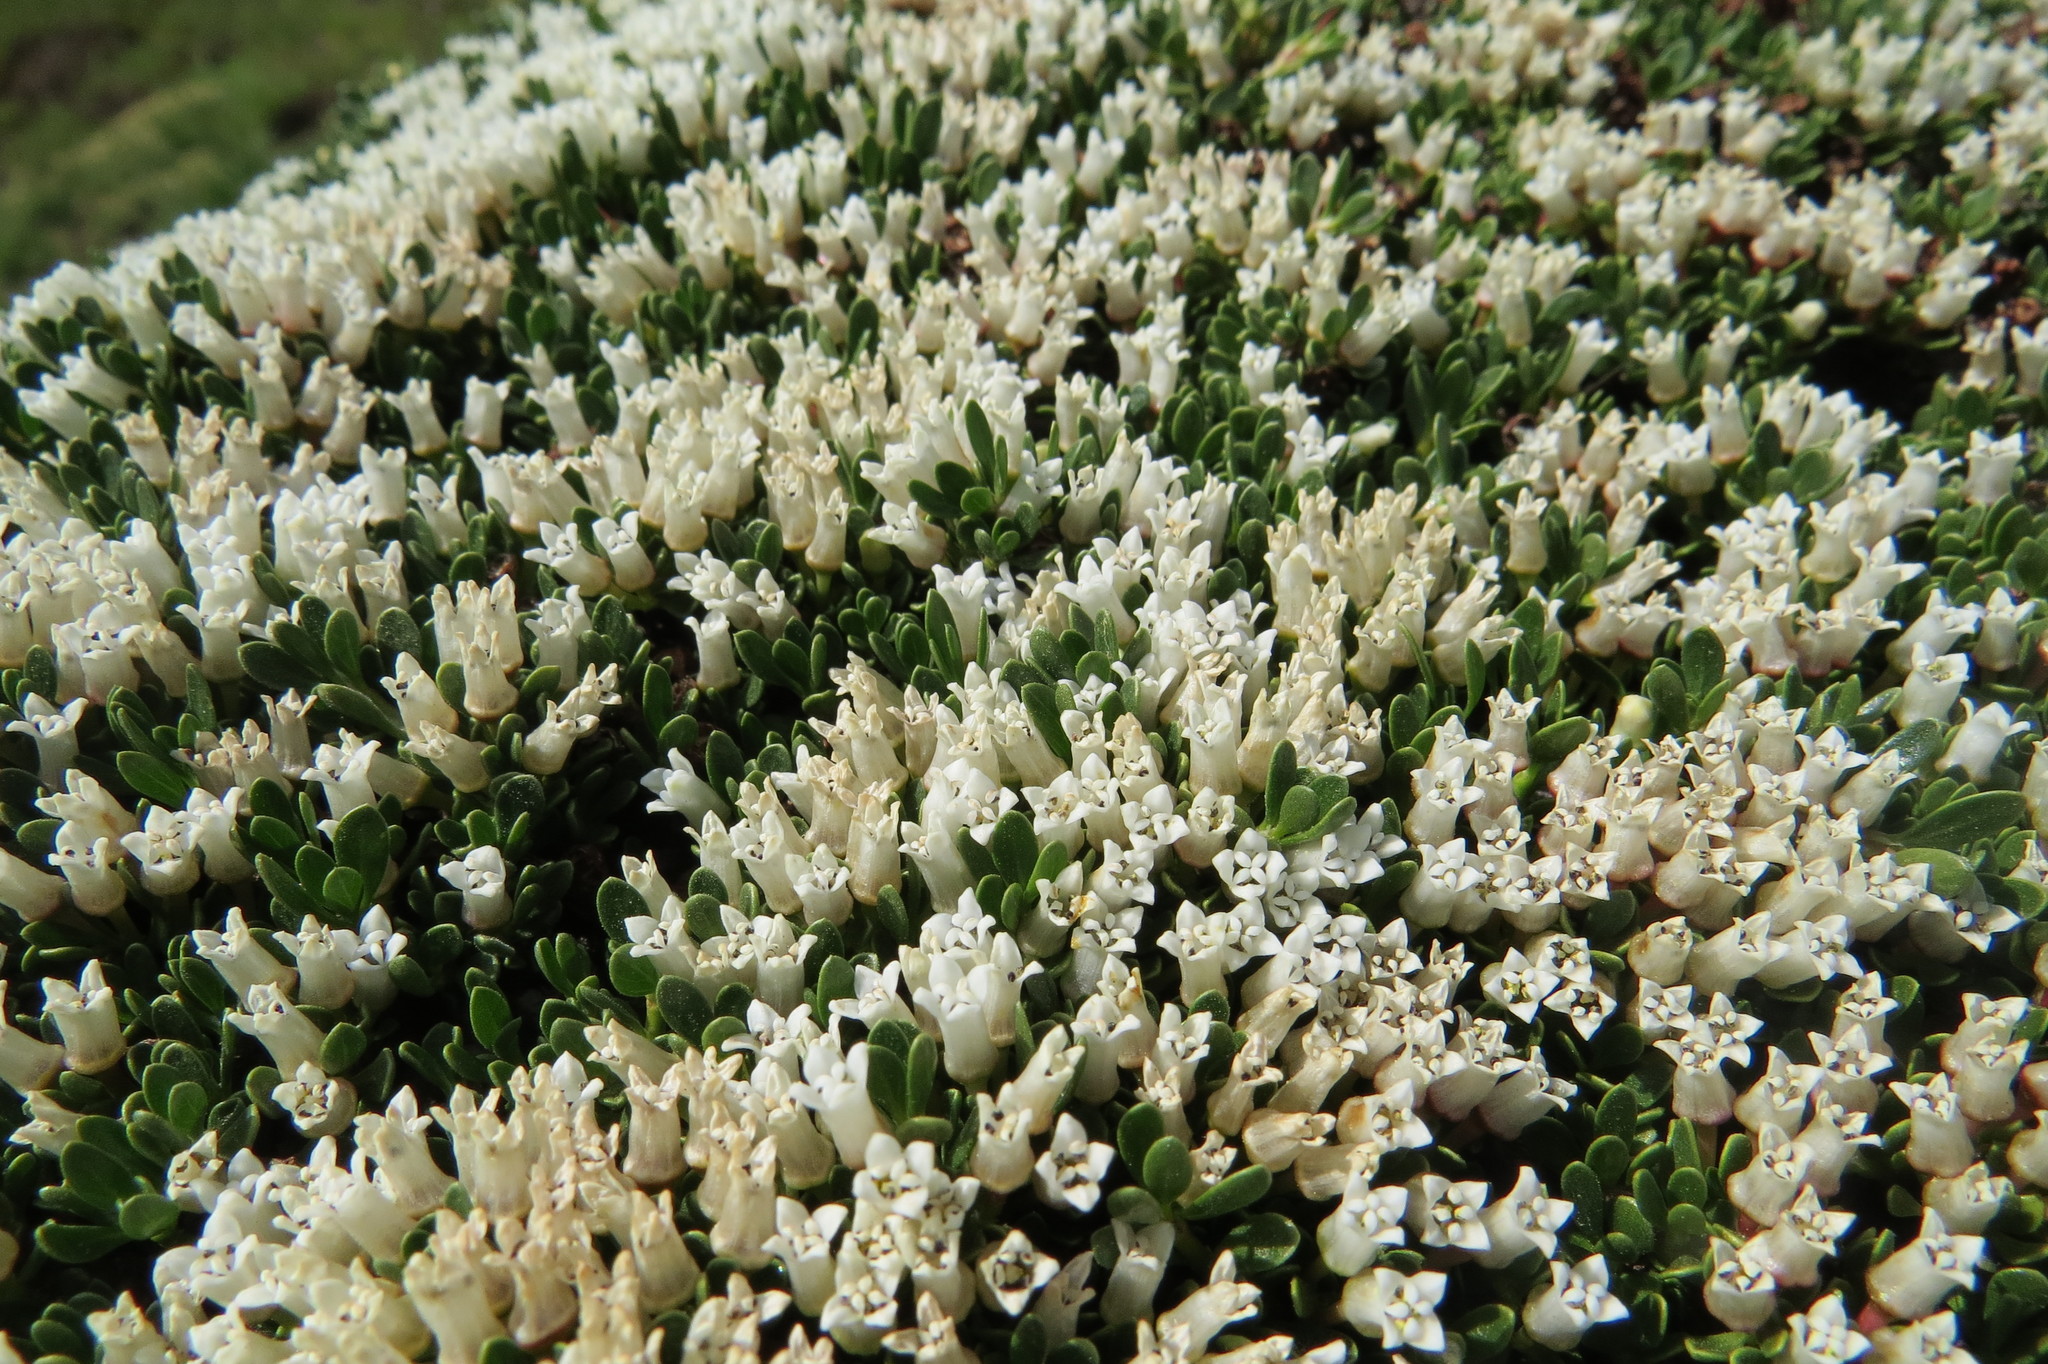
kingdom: Plantae
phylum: Tracheophyta
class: Magnoliopsida
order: Rosales
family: Rhamnaceae
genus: Discaria
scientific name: Discaria nana
